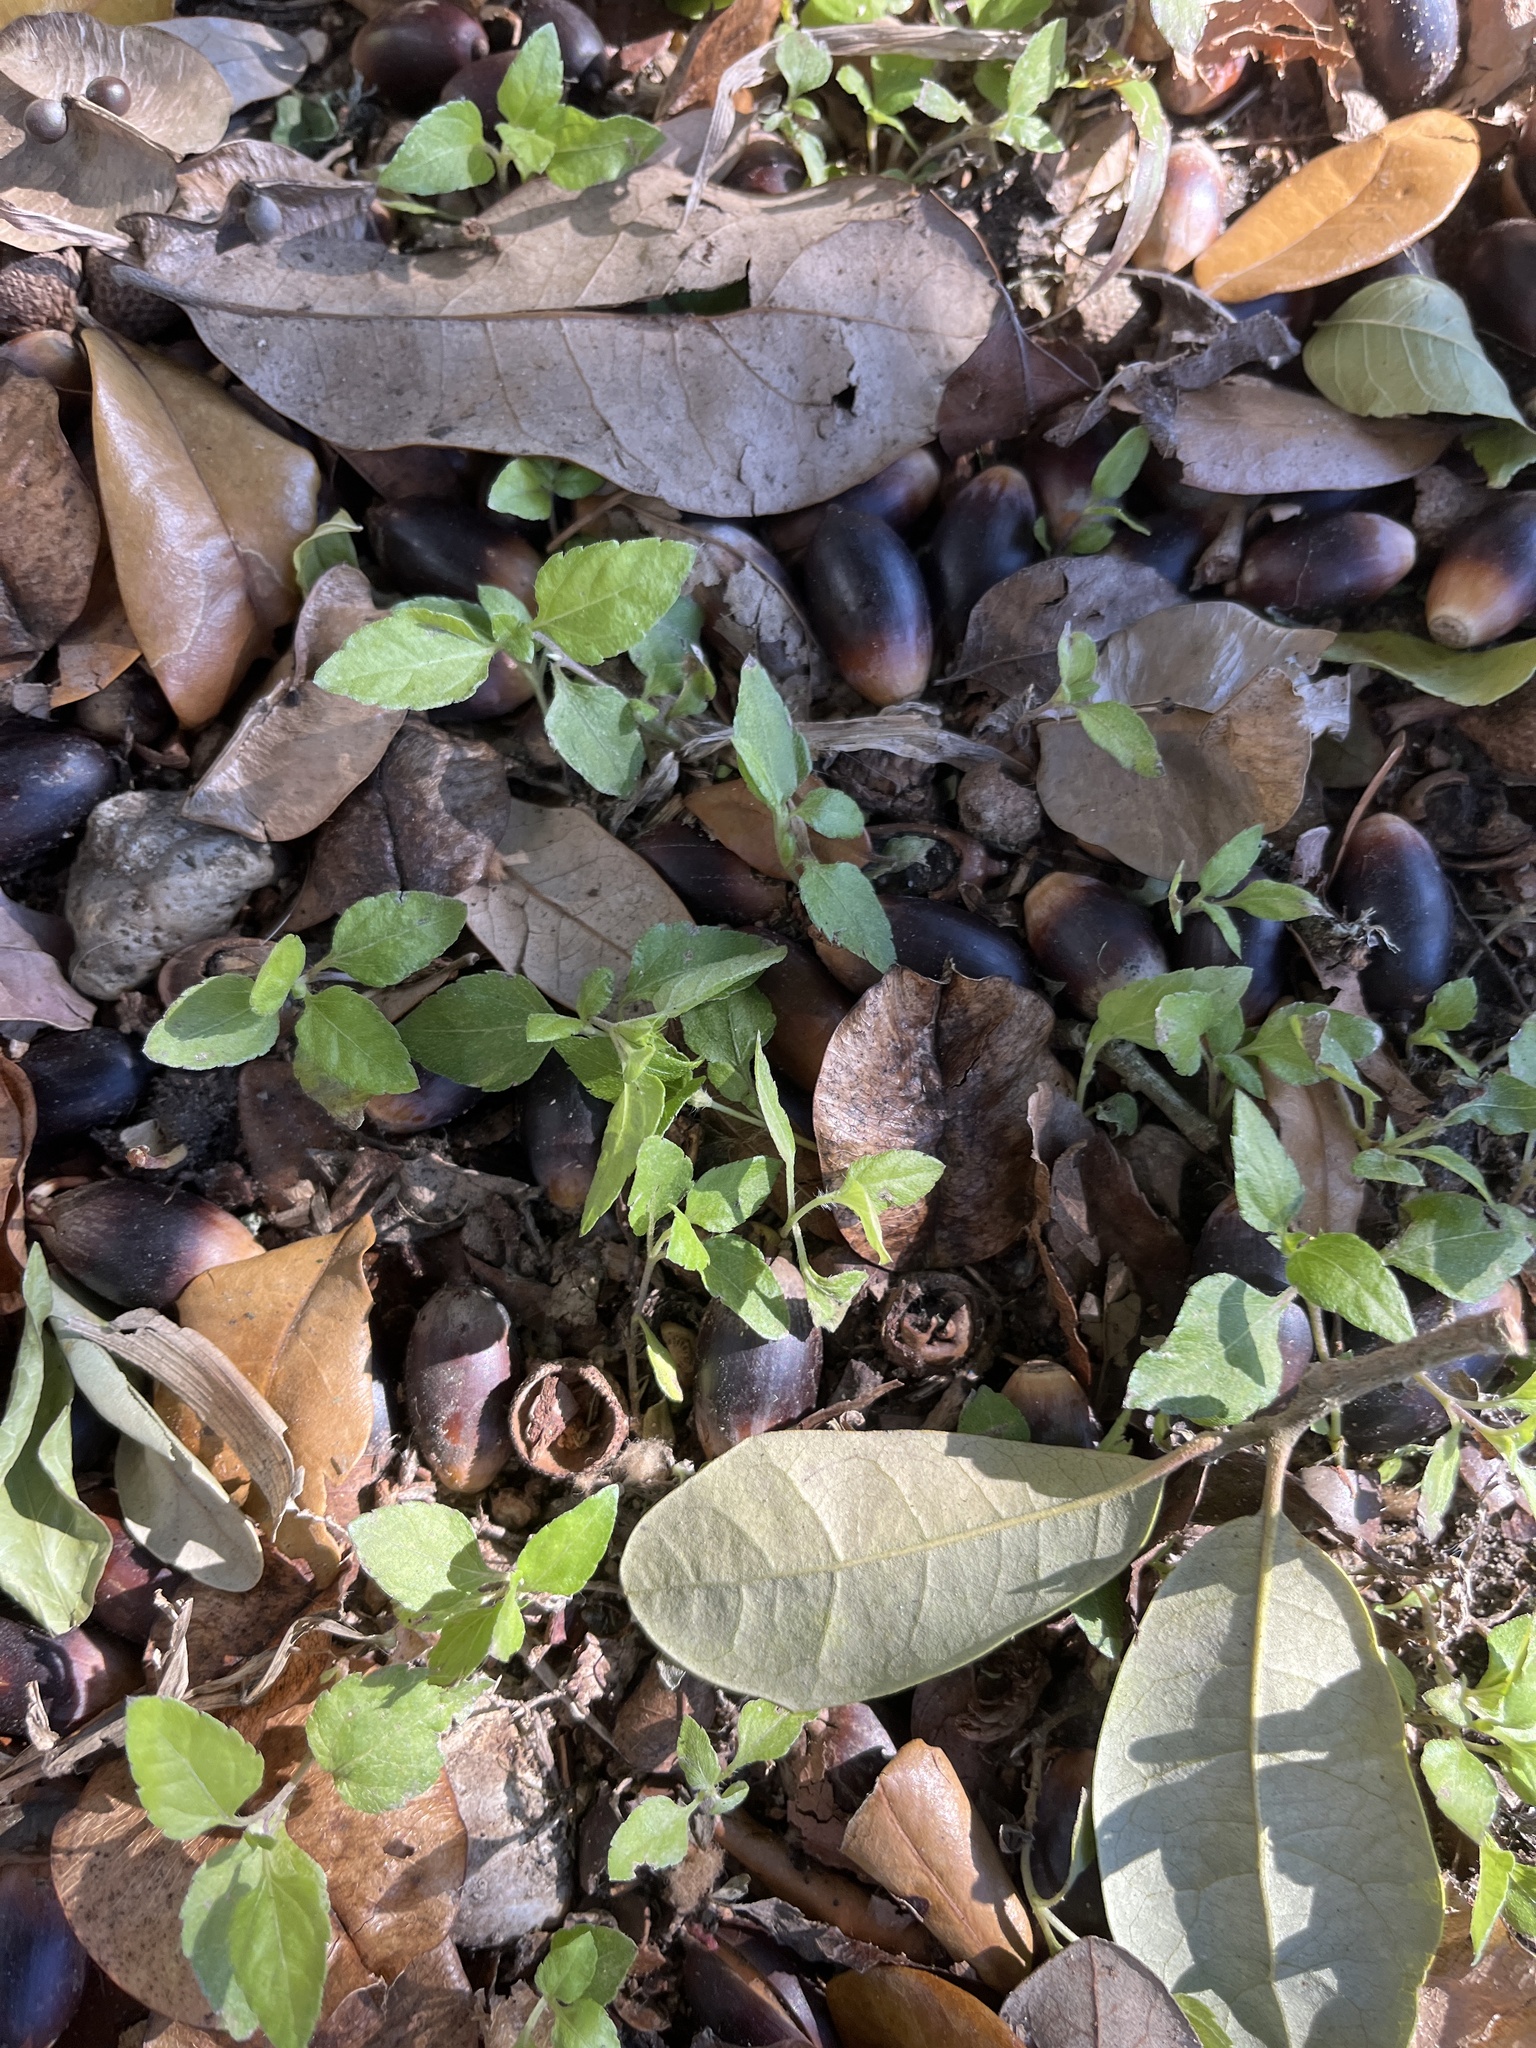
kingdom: Plantae
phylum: Tracheophyta
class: Magnoliopsida
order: Asterales
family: Asteraceae
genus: Calyptocarpus
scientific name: Calyptocarpus vialis
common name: Straggler daisy
